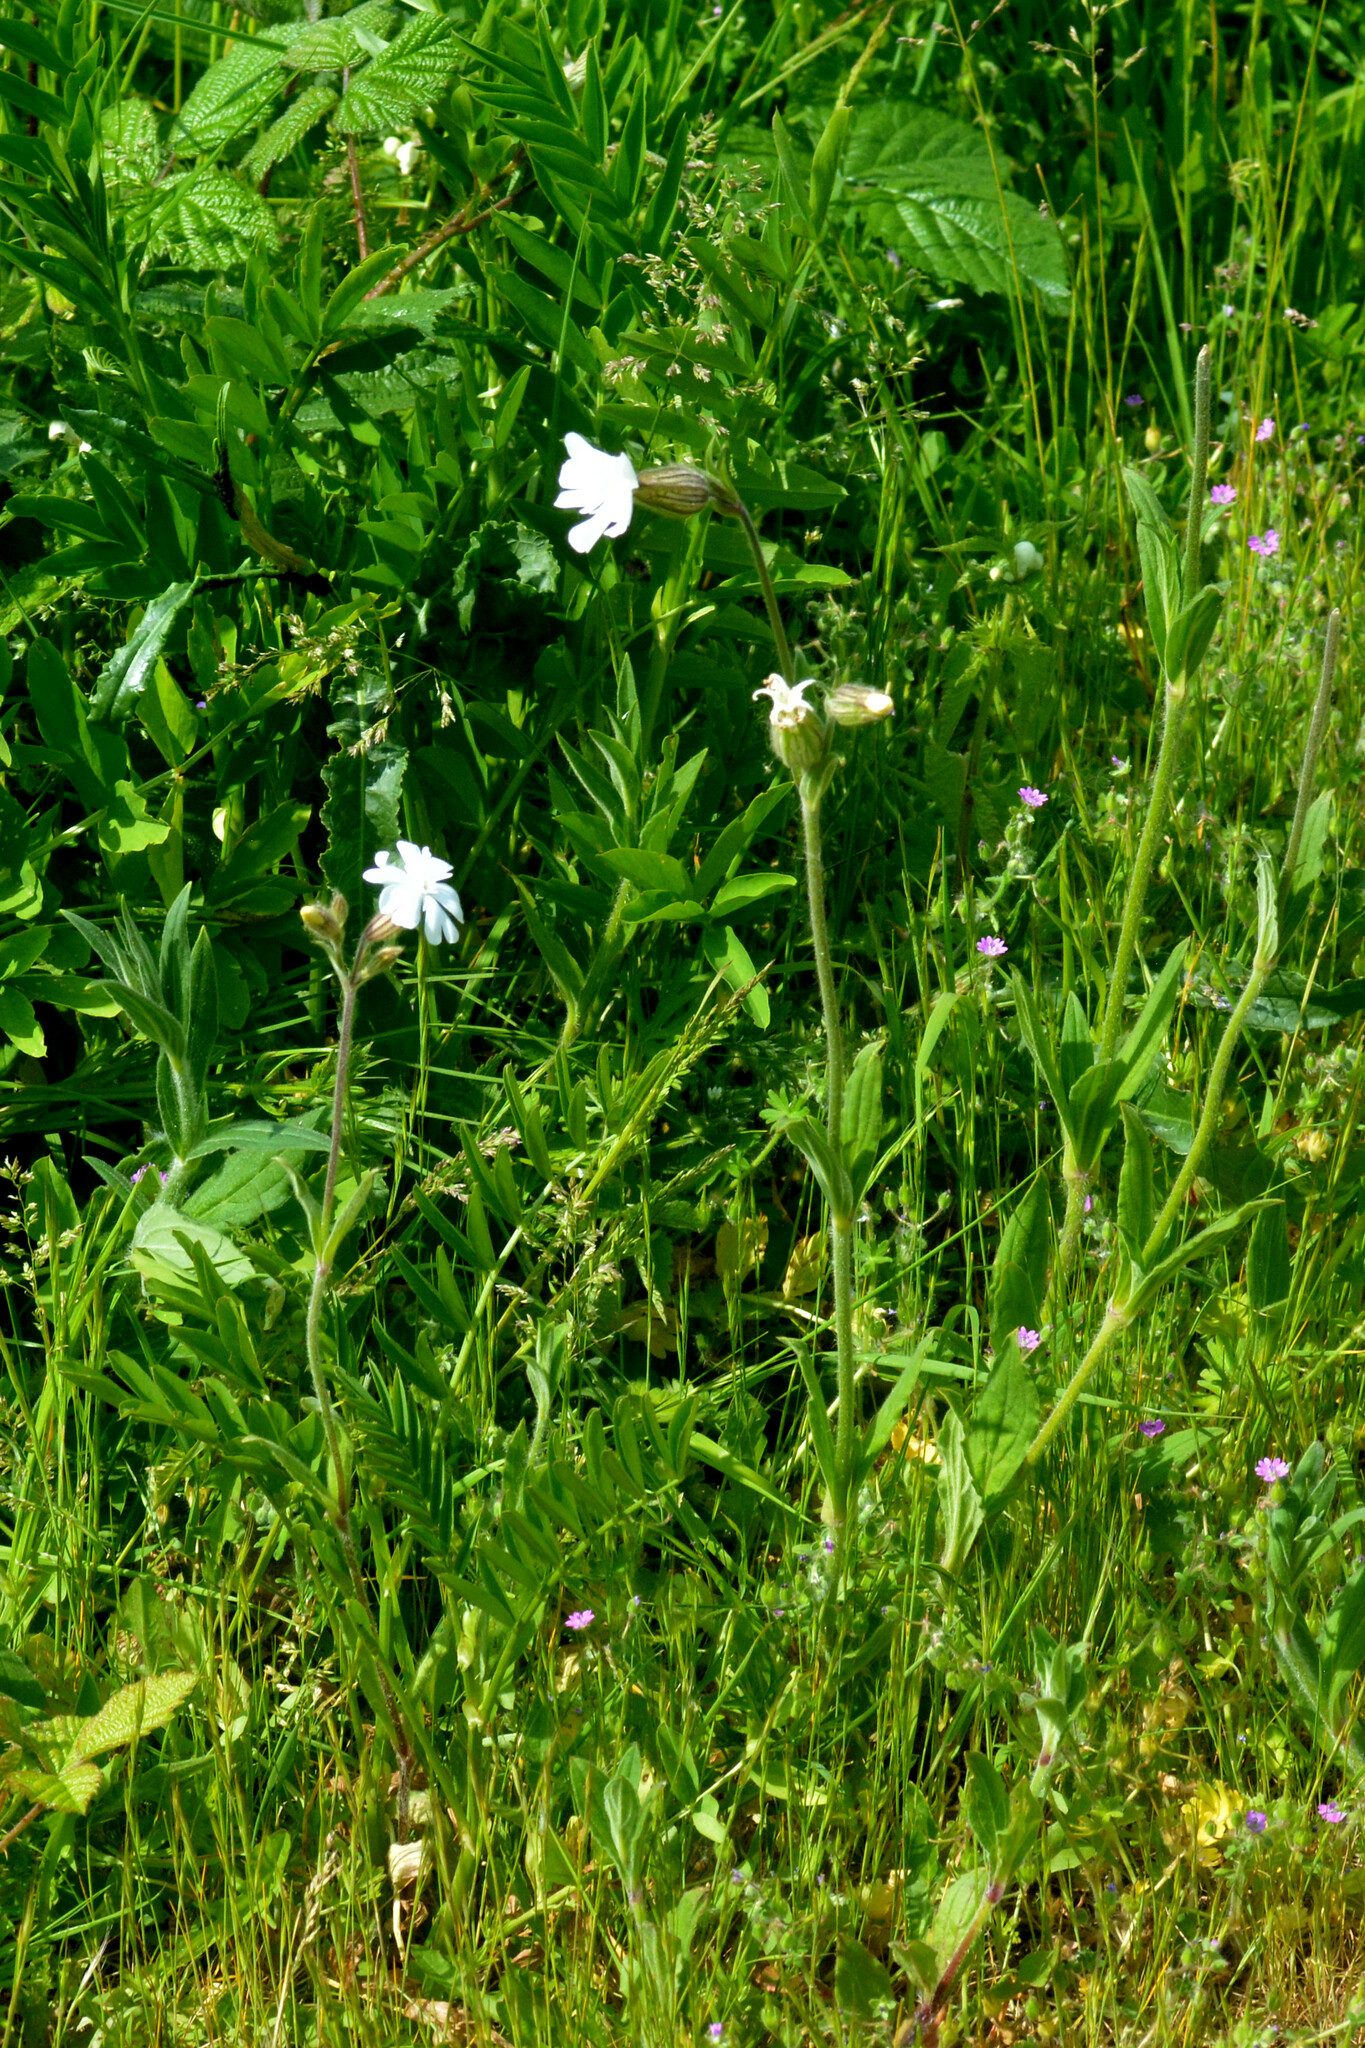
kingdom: Plantae
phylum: Tracheophyta
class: Magnoliopsida
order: Caryophyllales
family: Caryophyllaceae
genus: Silene
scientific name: Silene latifolia
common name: White campion
